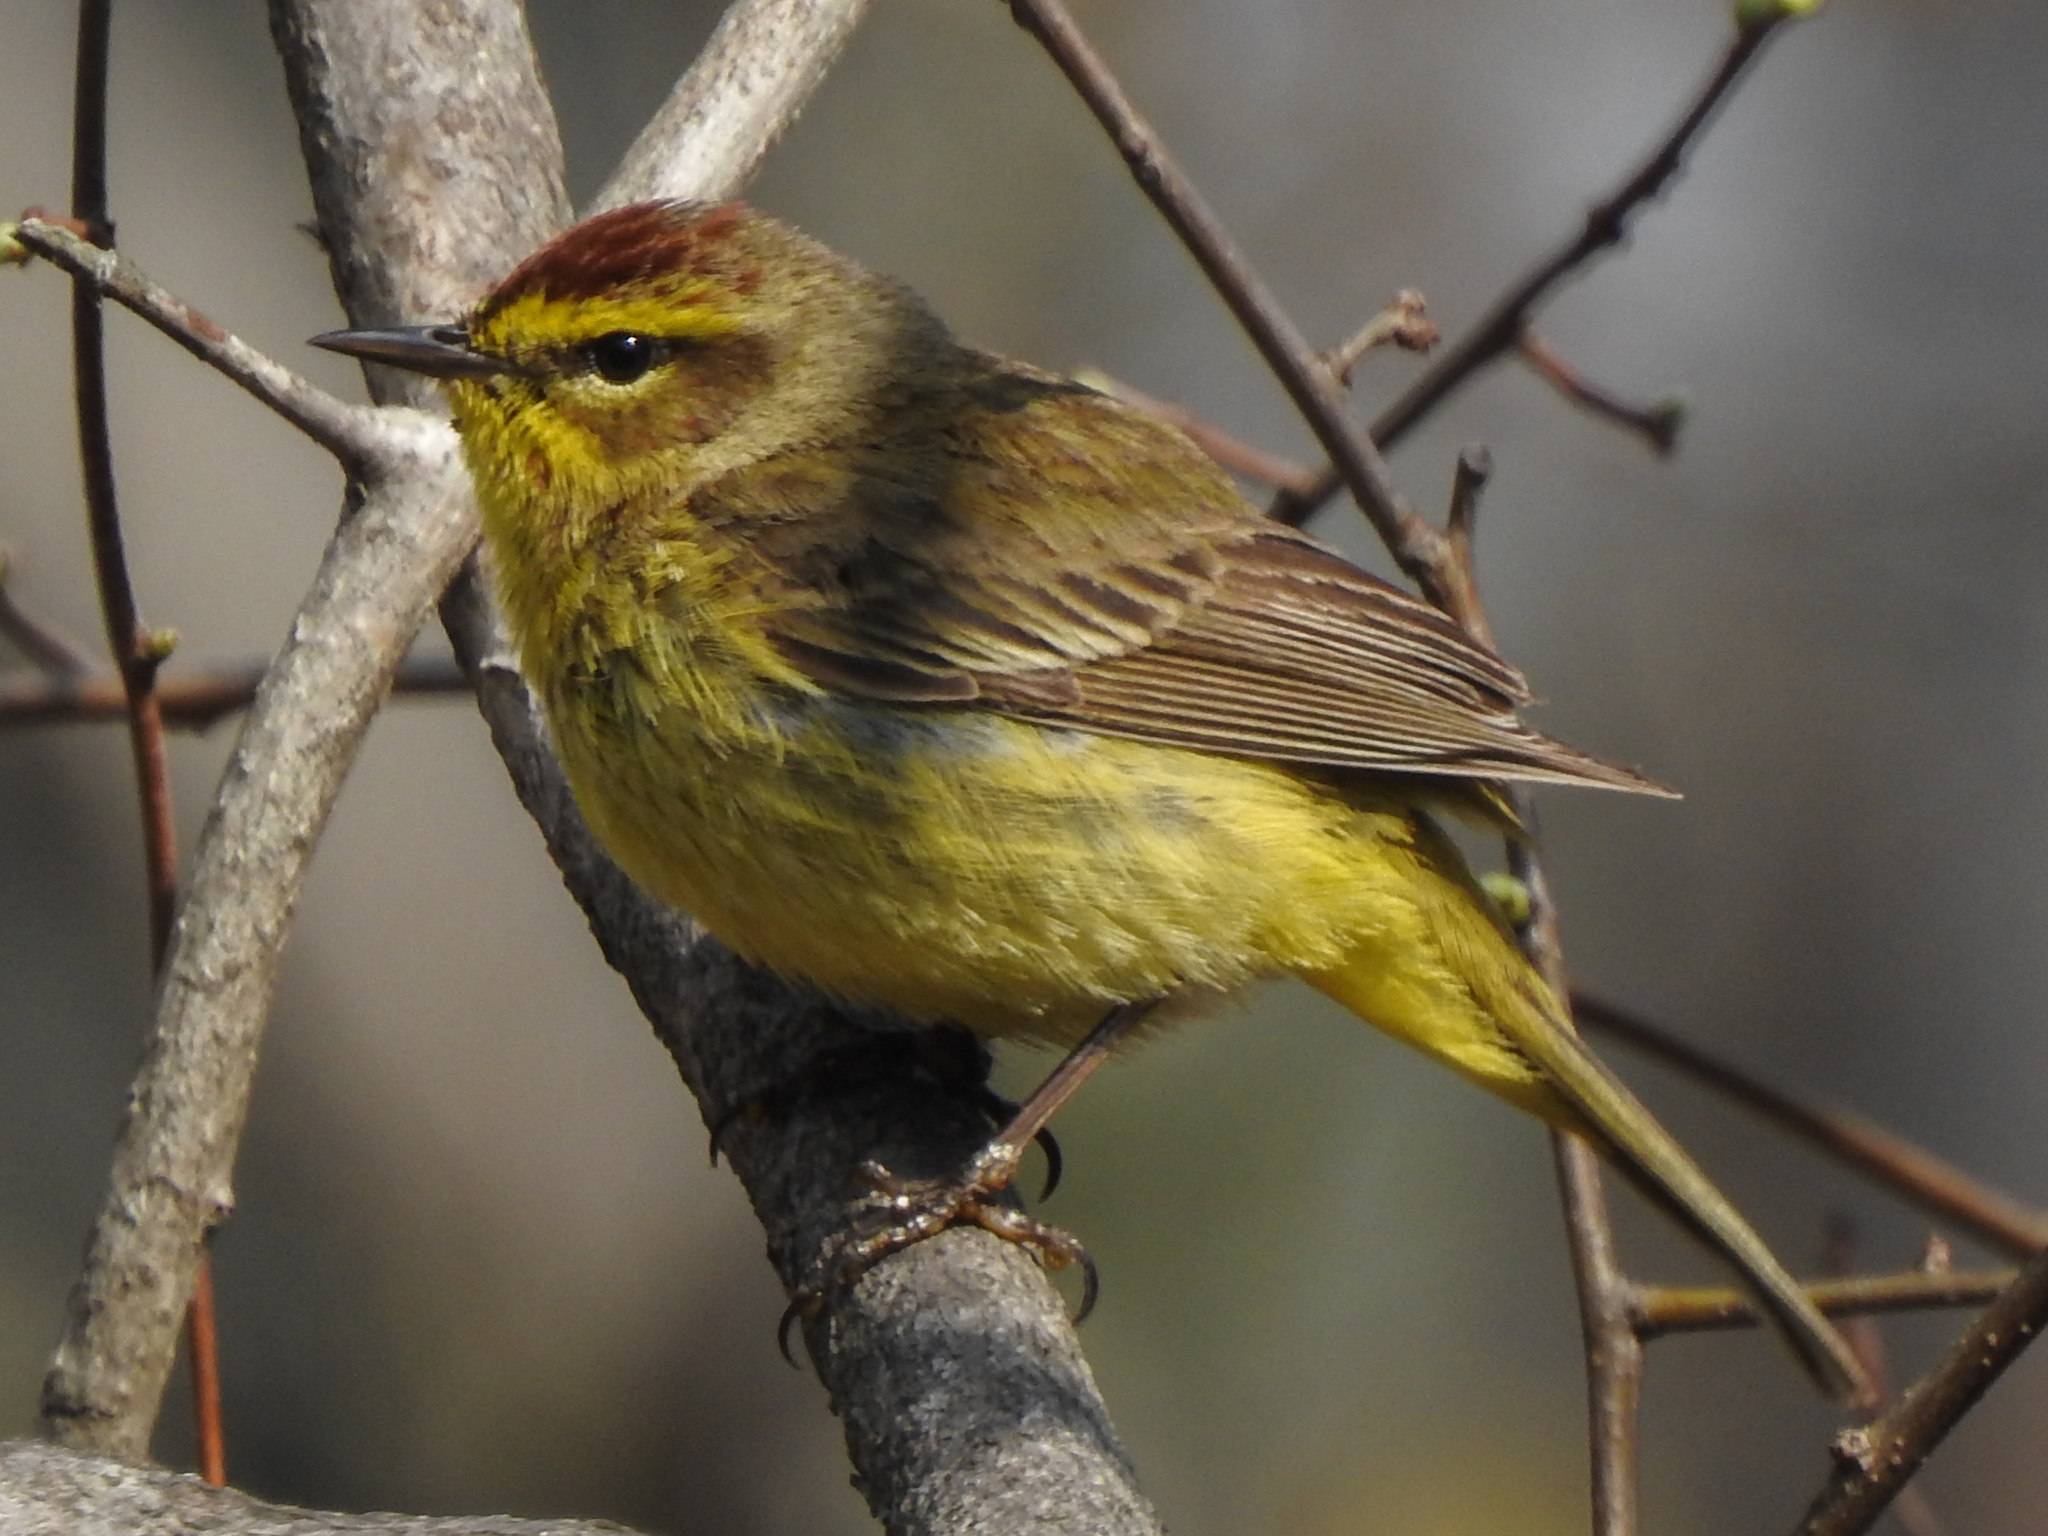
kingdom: Animalia
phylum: Chordata
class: Aves
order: Passeriformes
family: Parulidae
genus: Setophaga
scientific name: Setophaga palmarum
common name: Palm warbler
